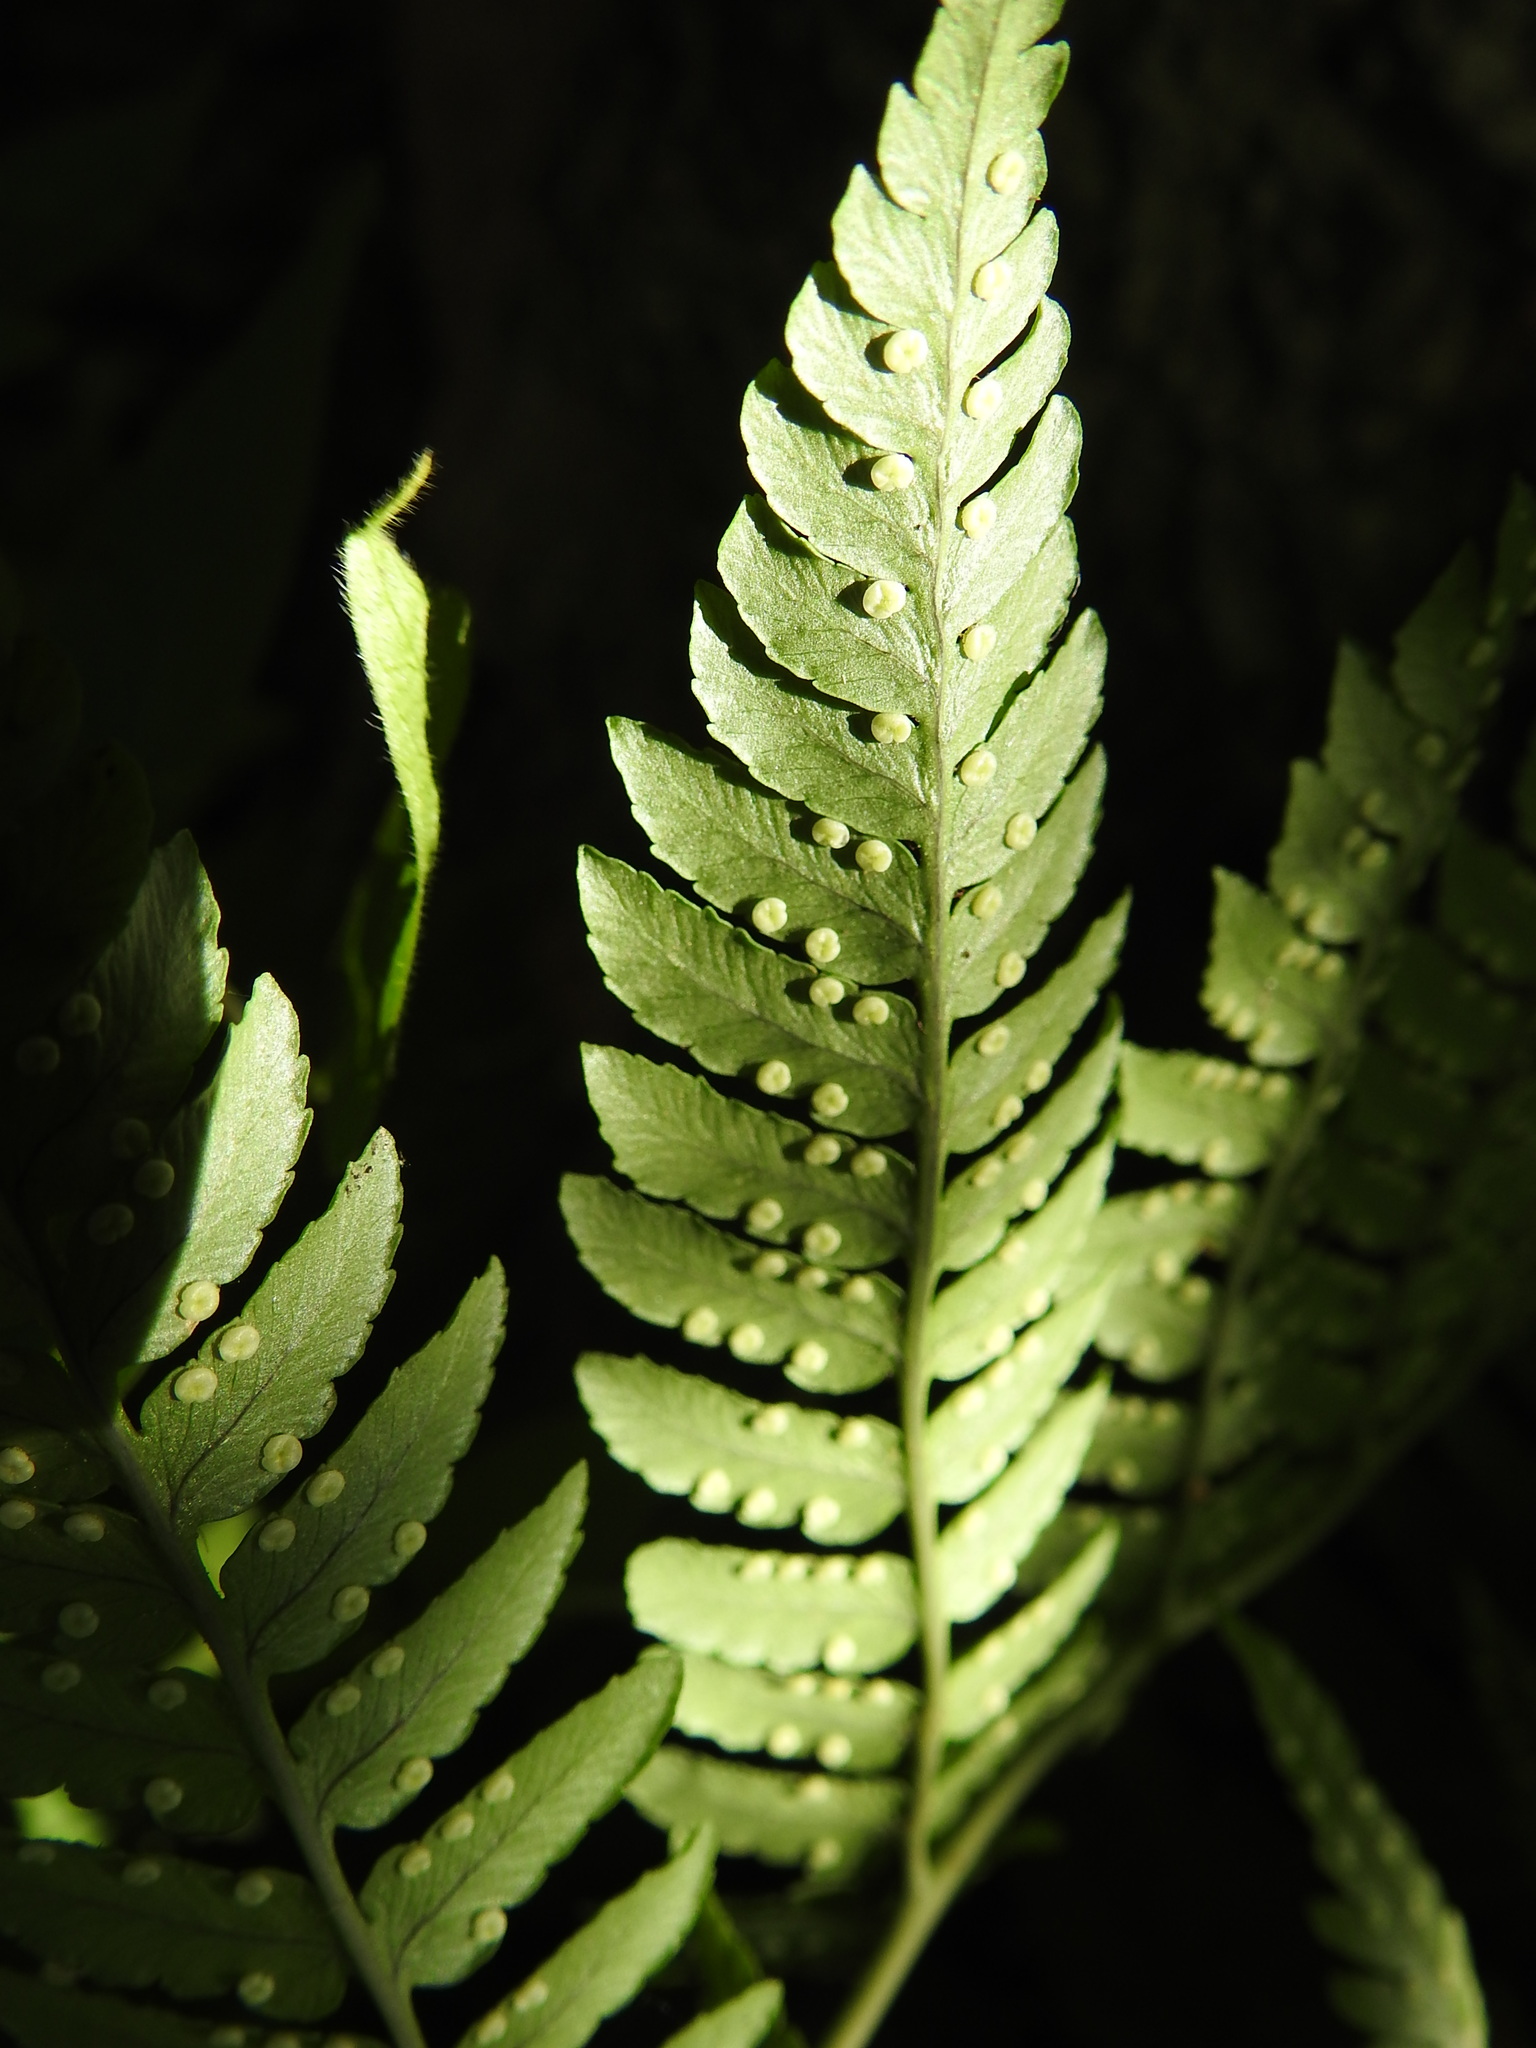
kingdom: Plantae
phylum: Tracheophyta
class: Polypodiopsida
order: Polypodiales
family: Dryopteridaceae
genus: Dryopteris
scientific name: Dryopteris marginalis
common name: Marginal wood fern
